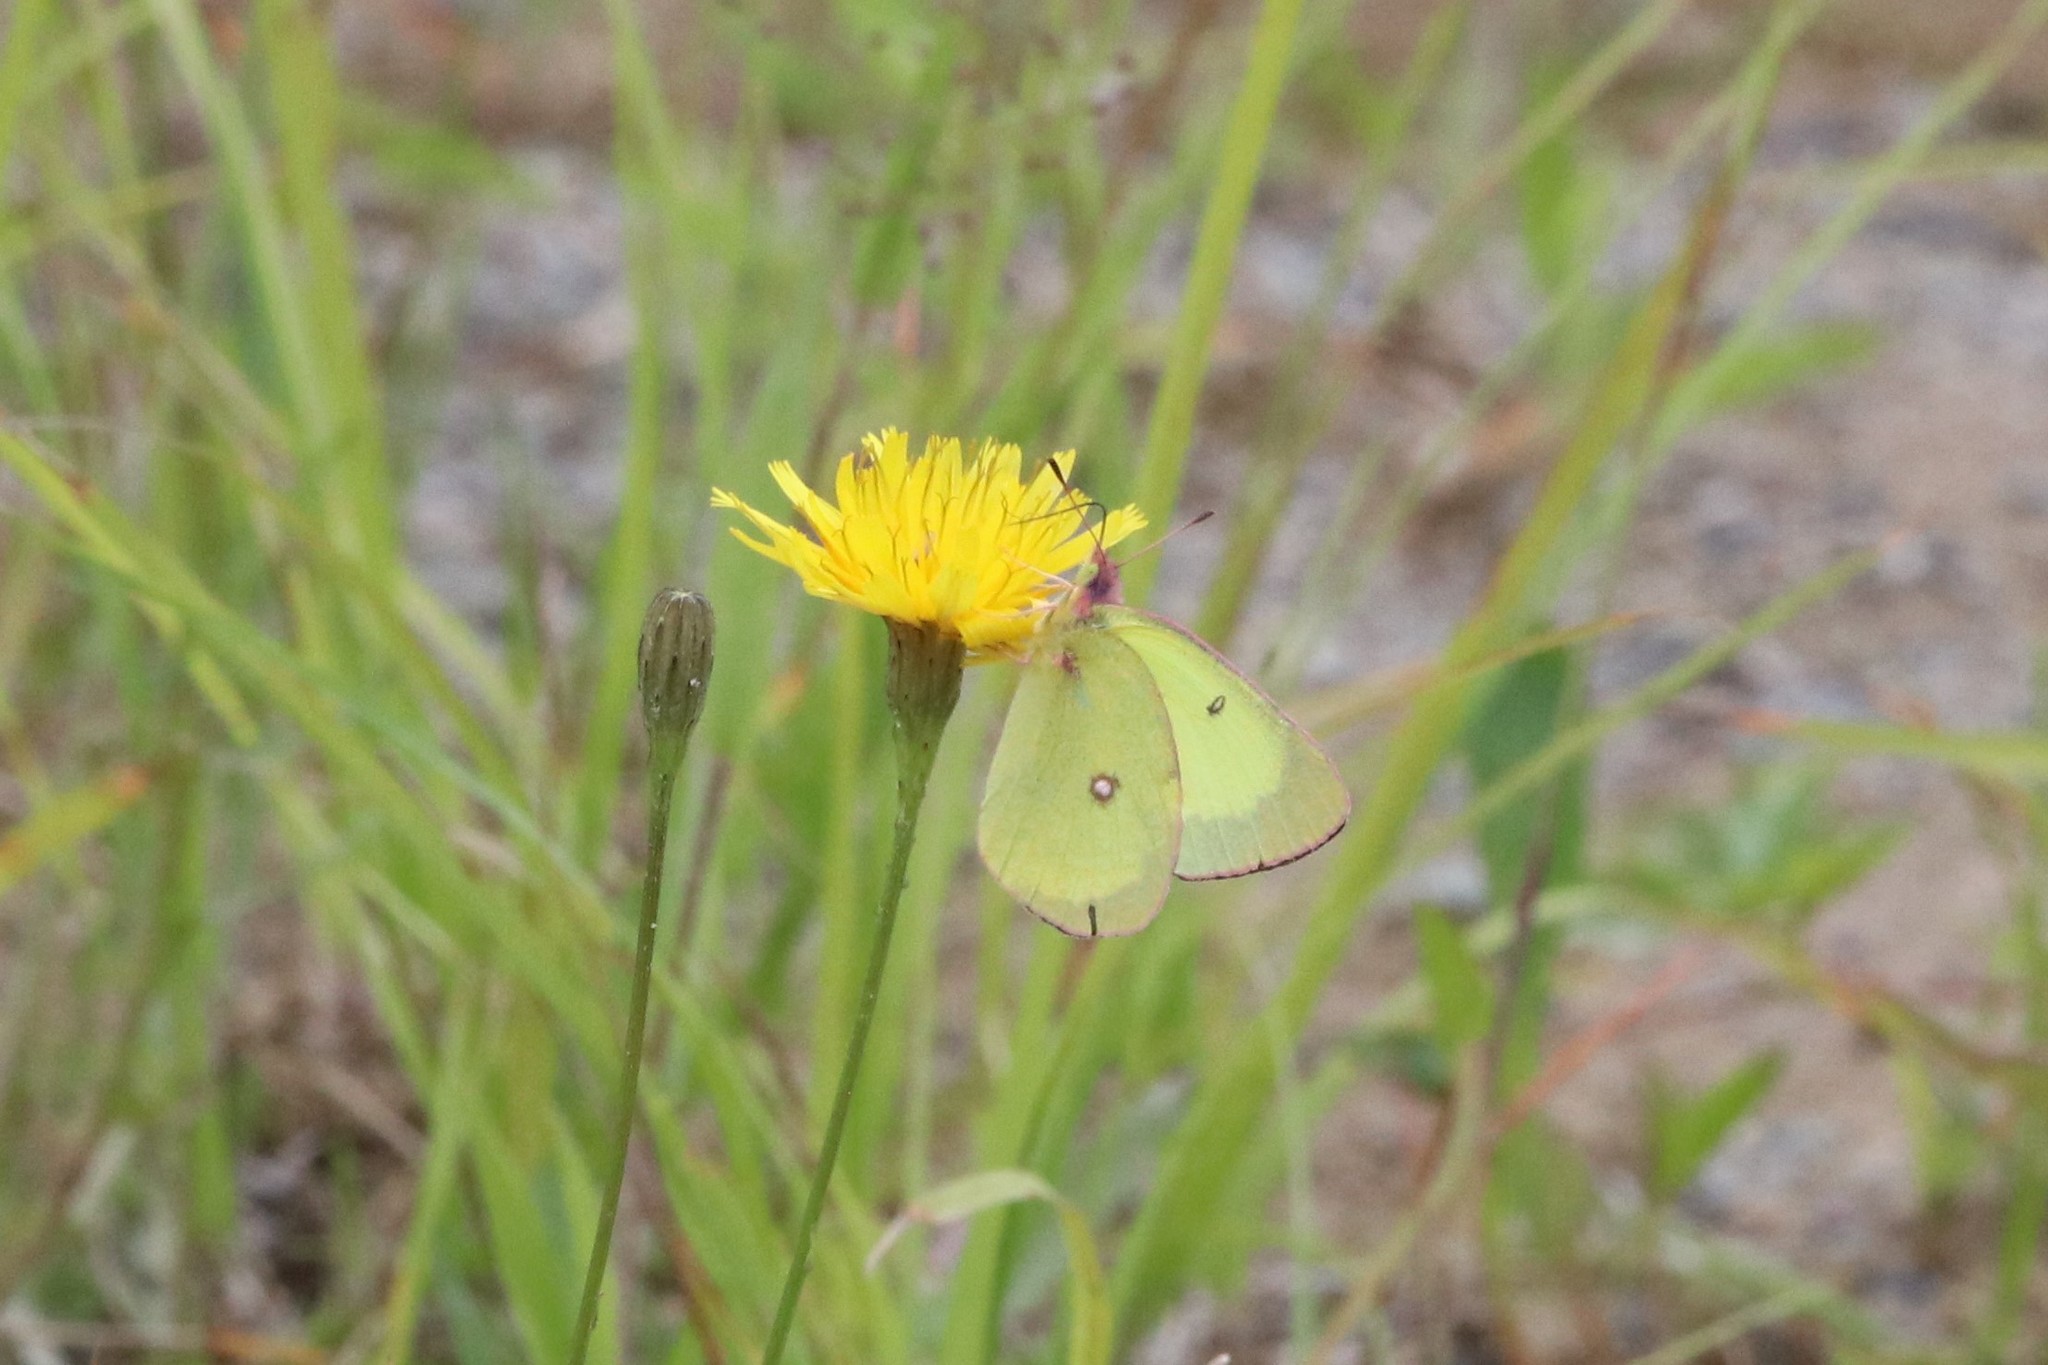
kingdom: Animalia
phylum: Arthropoda
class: Insecta
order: Lepidoptera
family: Pieridae
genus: Colias
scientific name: Colias interior
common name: Pink-edged sulphur
